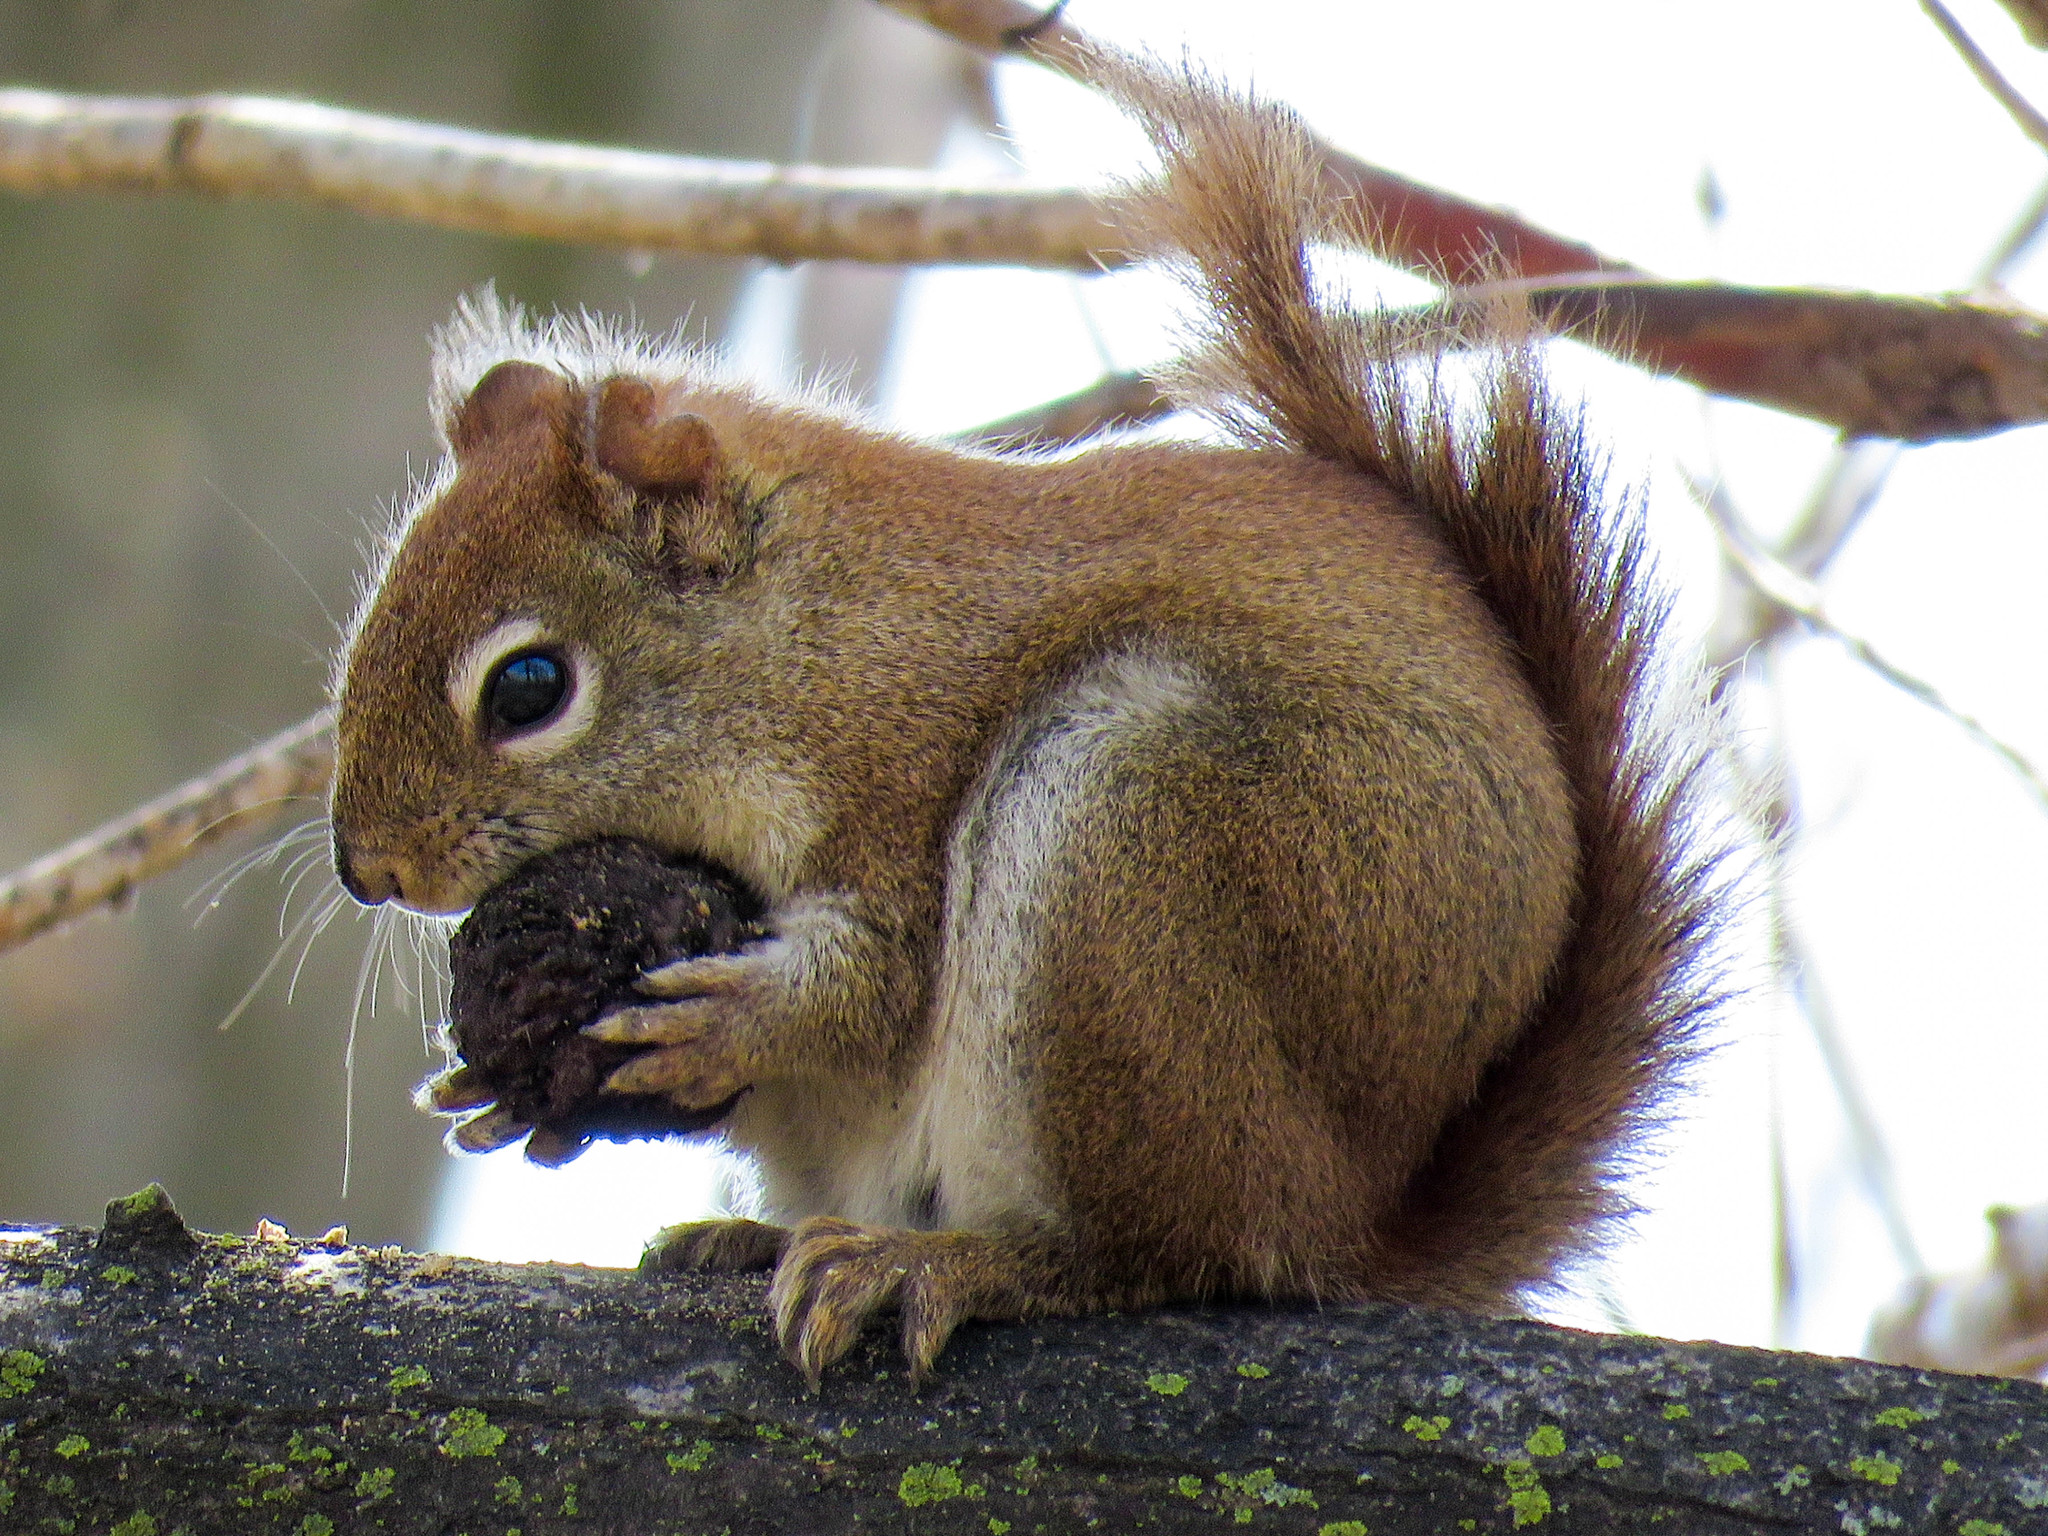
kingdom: Animalia
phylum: Chordata
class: Mammalia
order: Rodentia
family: Sciuridae
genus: Tamiasciurus
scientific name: Tamiasciurus hudsonicus
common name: Red squirrel
